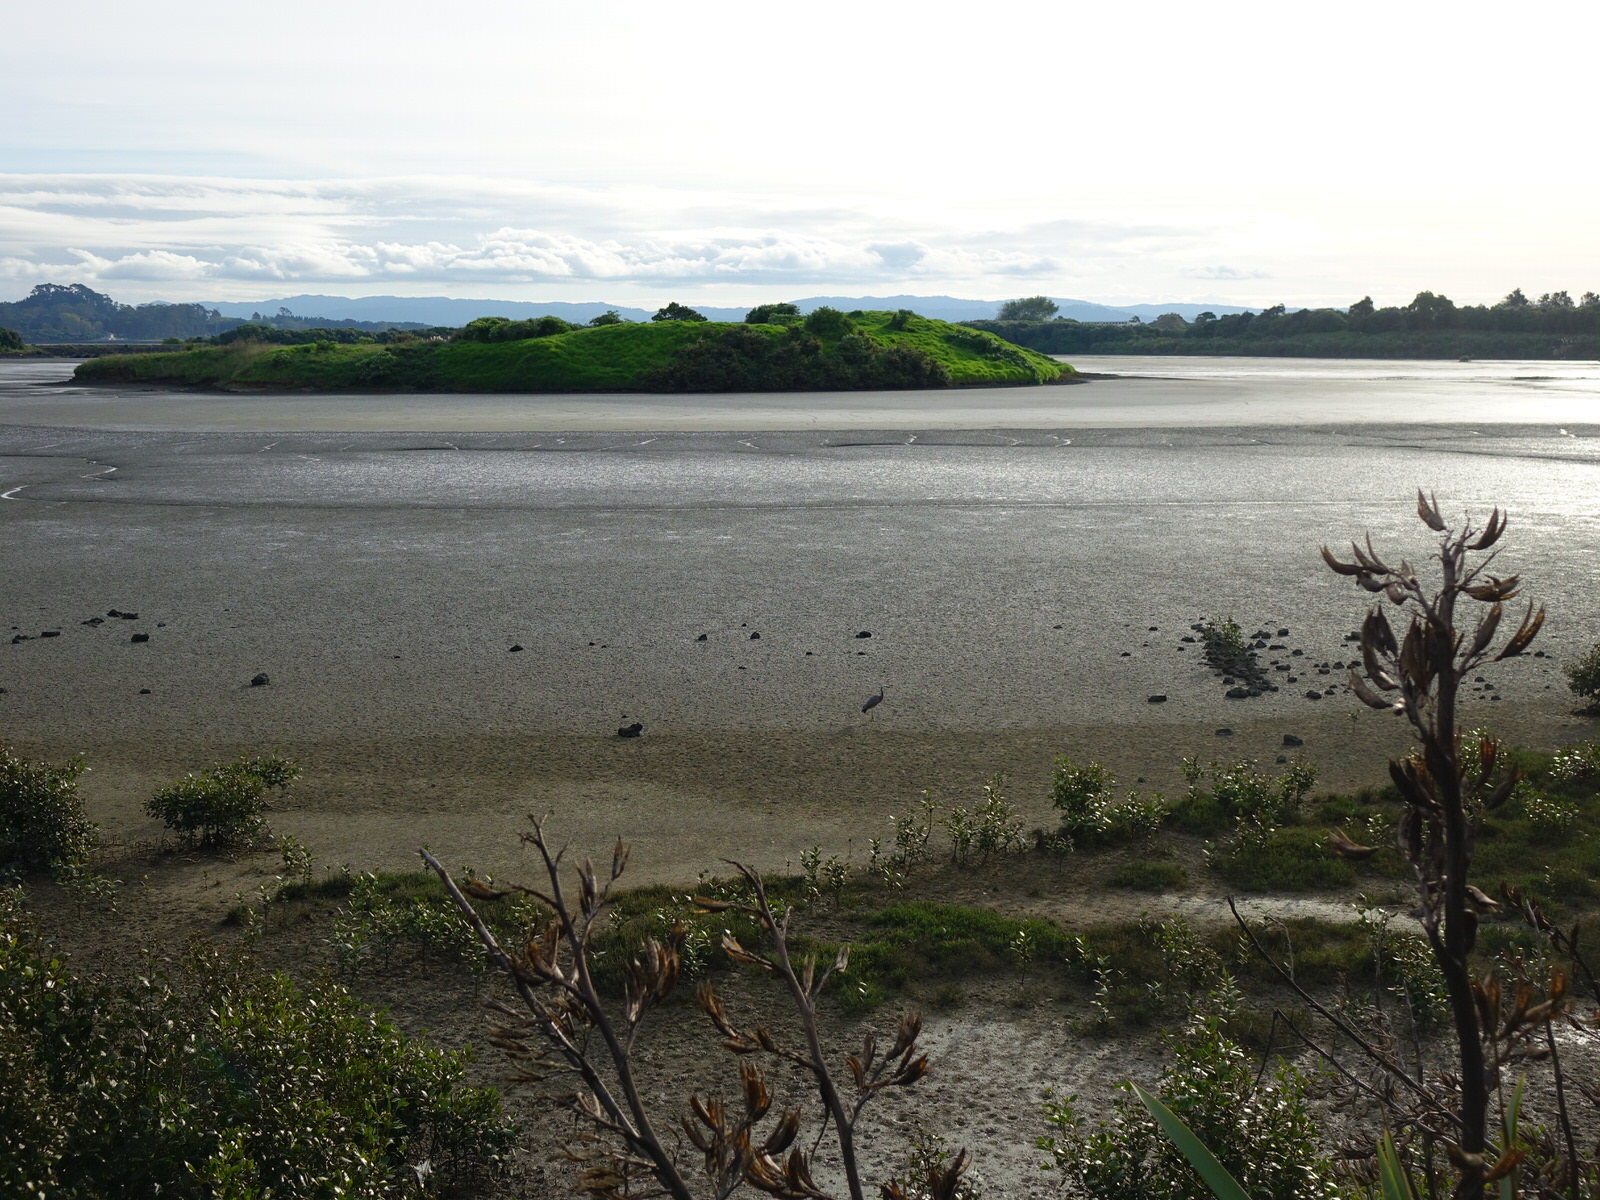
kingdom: Animalia
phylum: Chordata
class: Aves
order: Pelecaniformes
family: Ardeidae
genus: Egretta
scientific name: Egretta novaehollandiae
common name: White-faced heron
